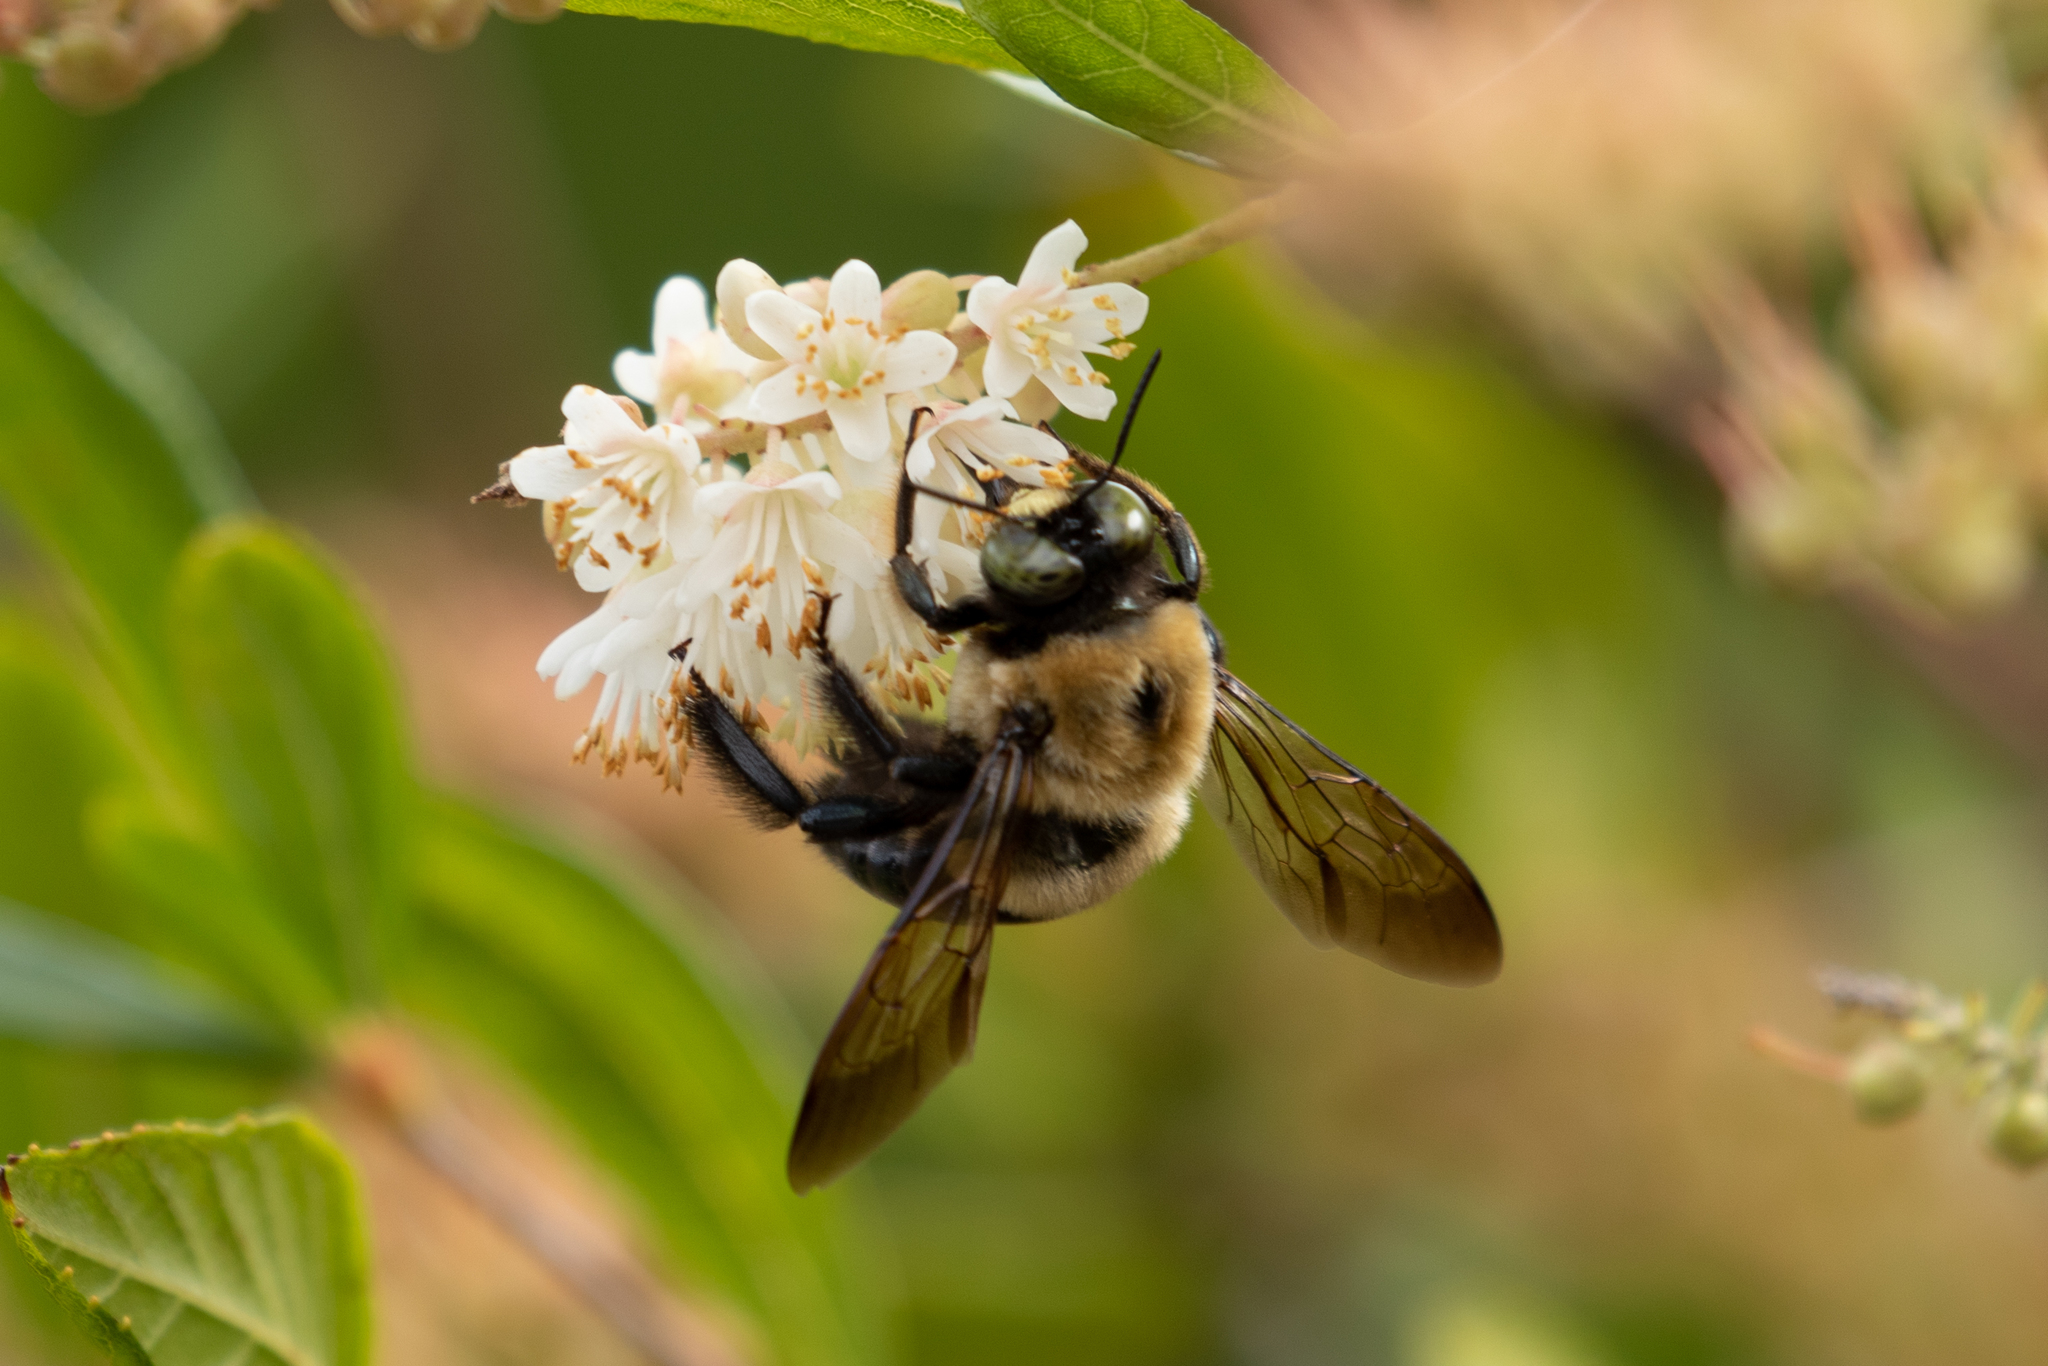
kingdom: Animalia
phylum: Arthropoda
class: Insecta
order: Hymenoptera
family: Apidae
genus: Xylocopa
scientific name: Xylocopa virginica
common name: Carpenter bee
